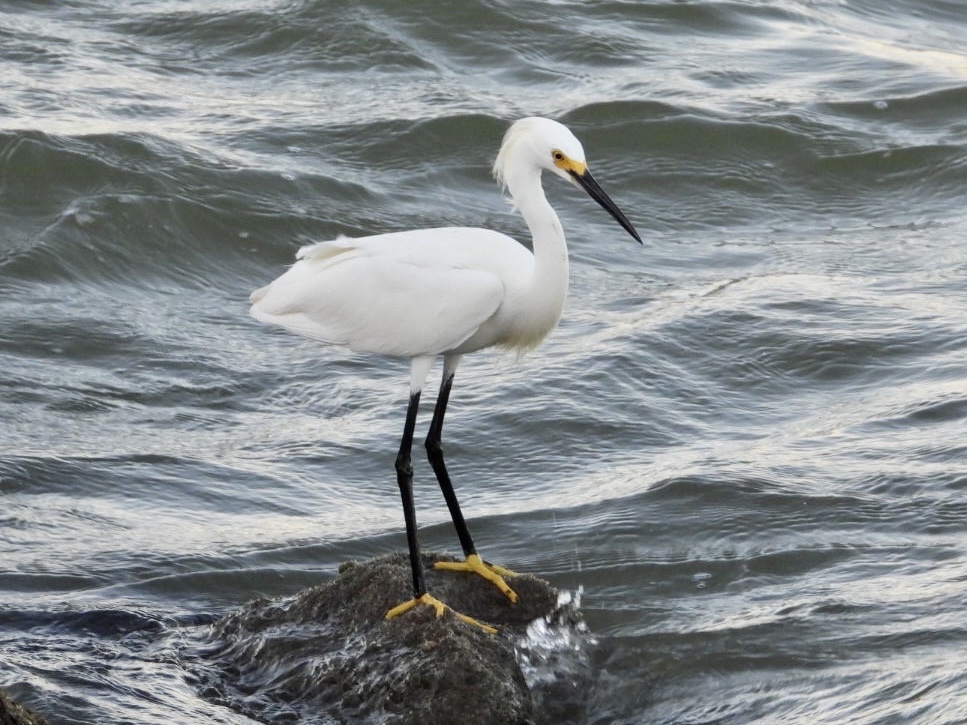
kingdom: Animalia
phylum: Chordata
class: Aves
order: Pelecaniformes
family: Ardeidae
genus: Egretta
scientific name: Egretta thula
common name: Snowy egret
